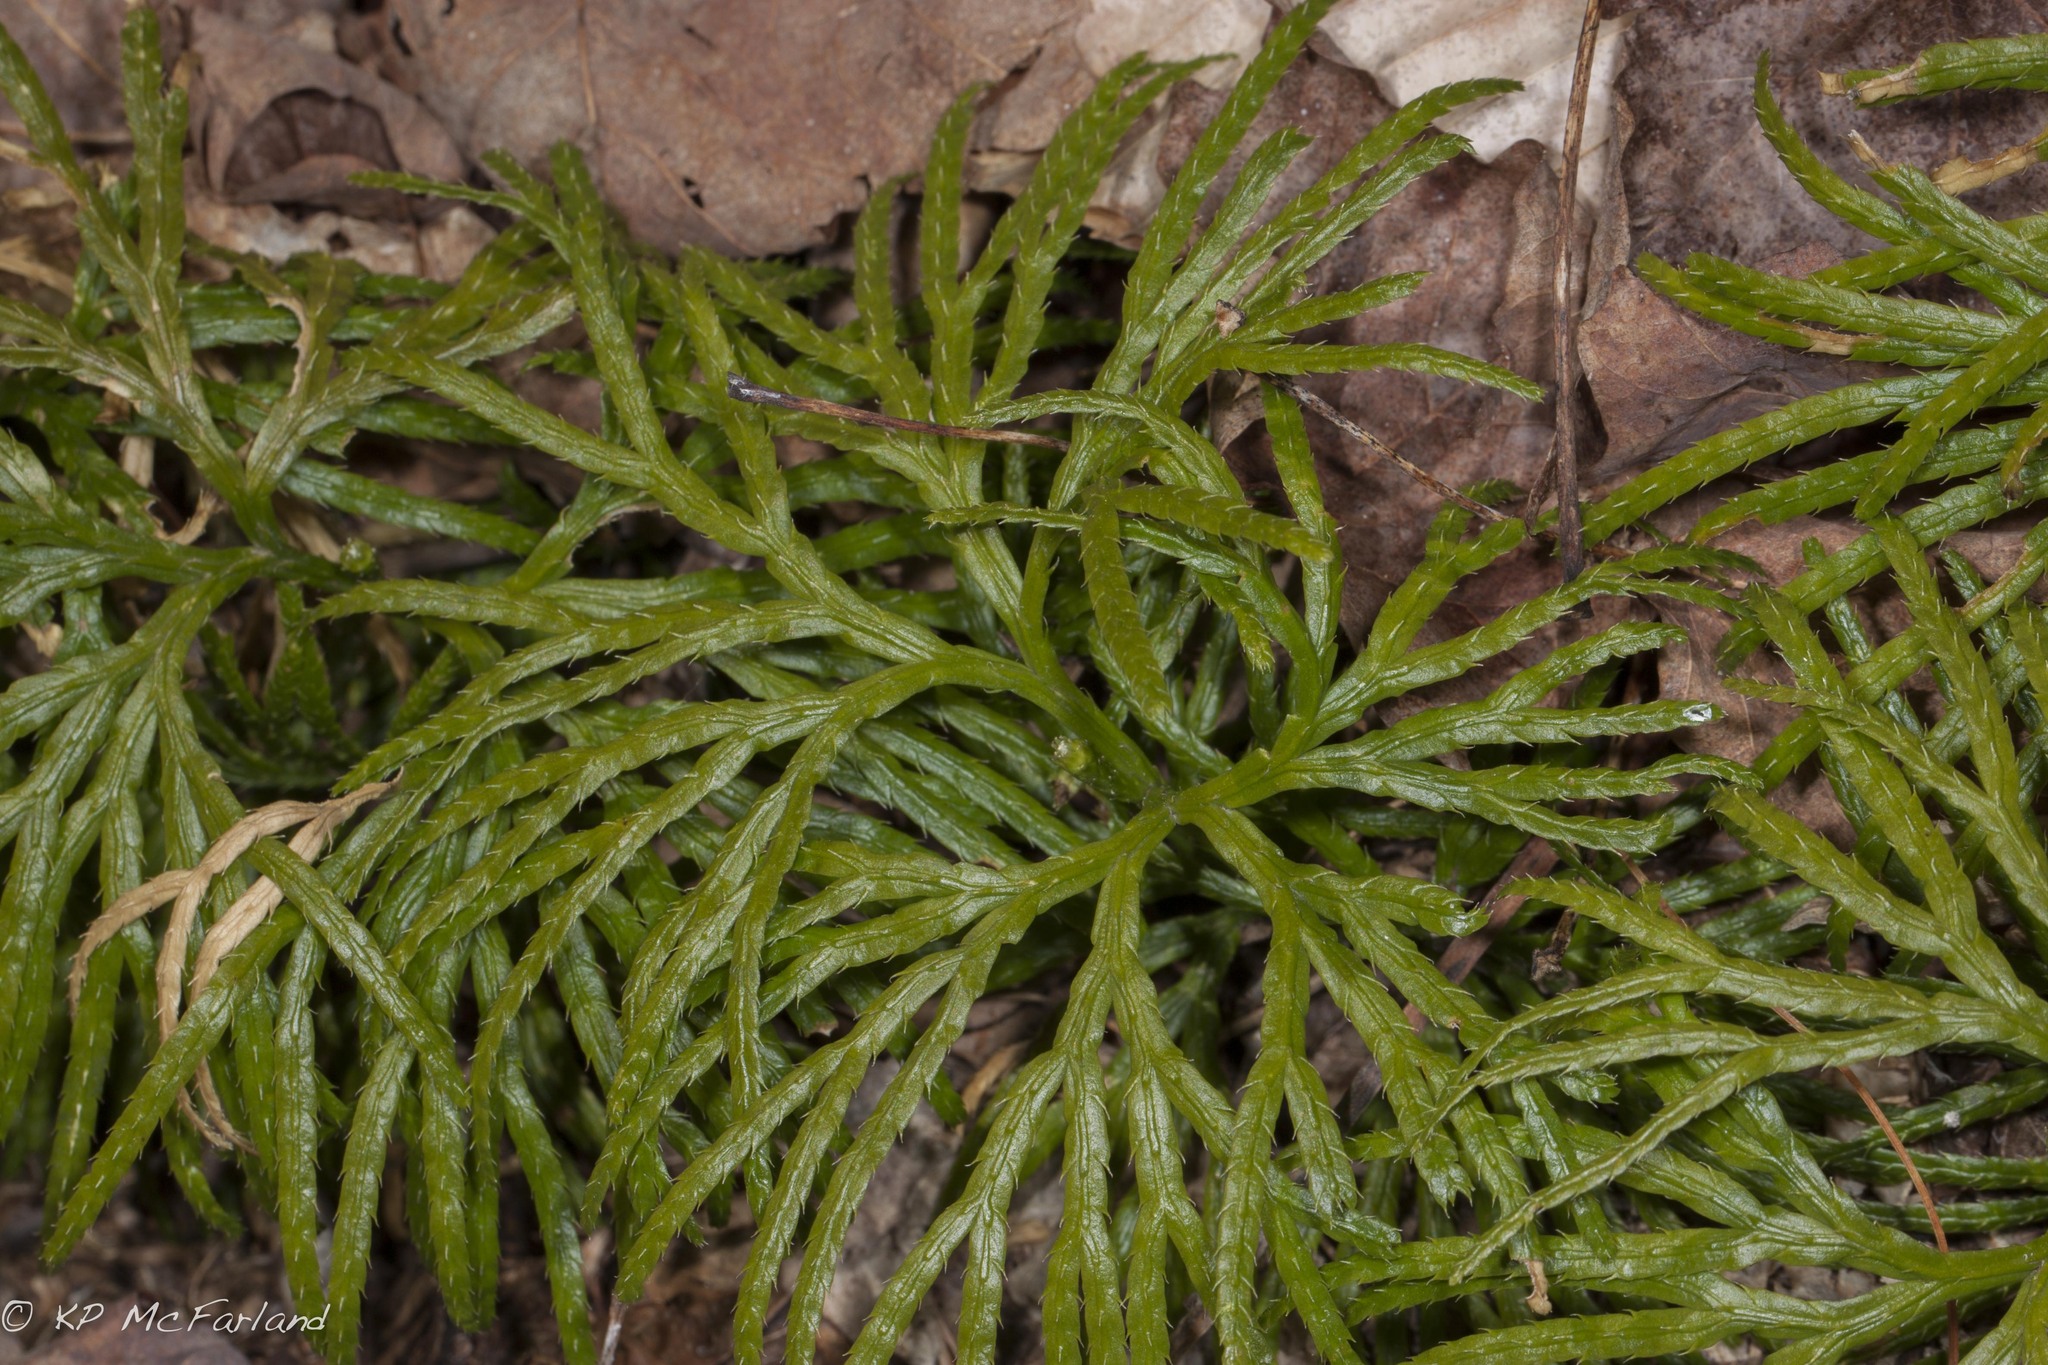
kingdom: Plantae
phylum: Tracheophyta
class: Lycopodiopsida
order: Lycopodiales
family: Lycopodiaceae
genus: Diphasiastrum
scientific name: Diphasiastrum digitatum
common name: Southern running-pine
